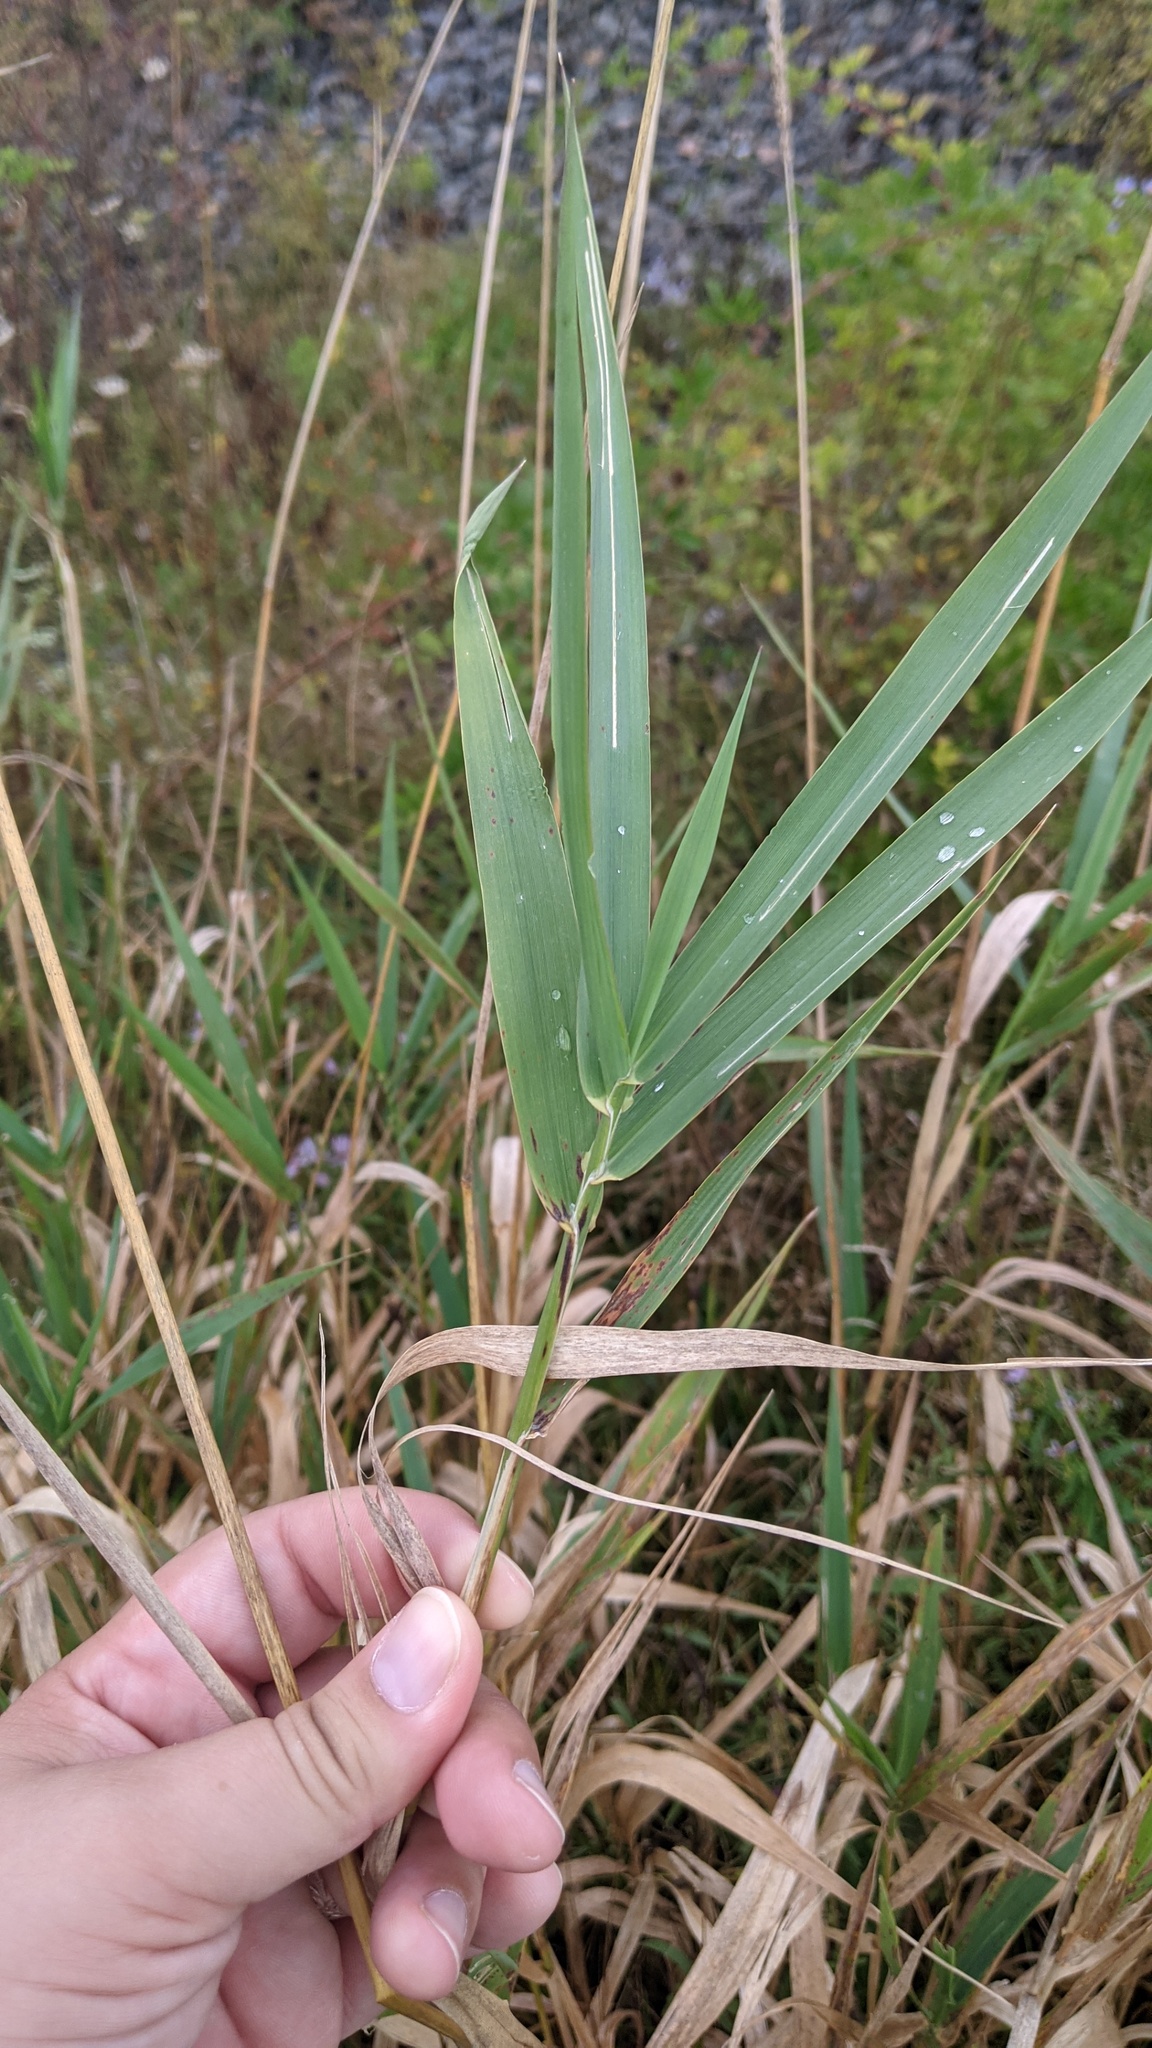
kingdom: Plantae
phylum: Tracheophyta
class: Liliopsida
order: Poales
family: Poaceae
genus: Phalaris
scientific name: Phalaris arundinacea
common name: Reed canary-grass
